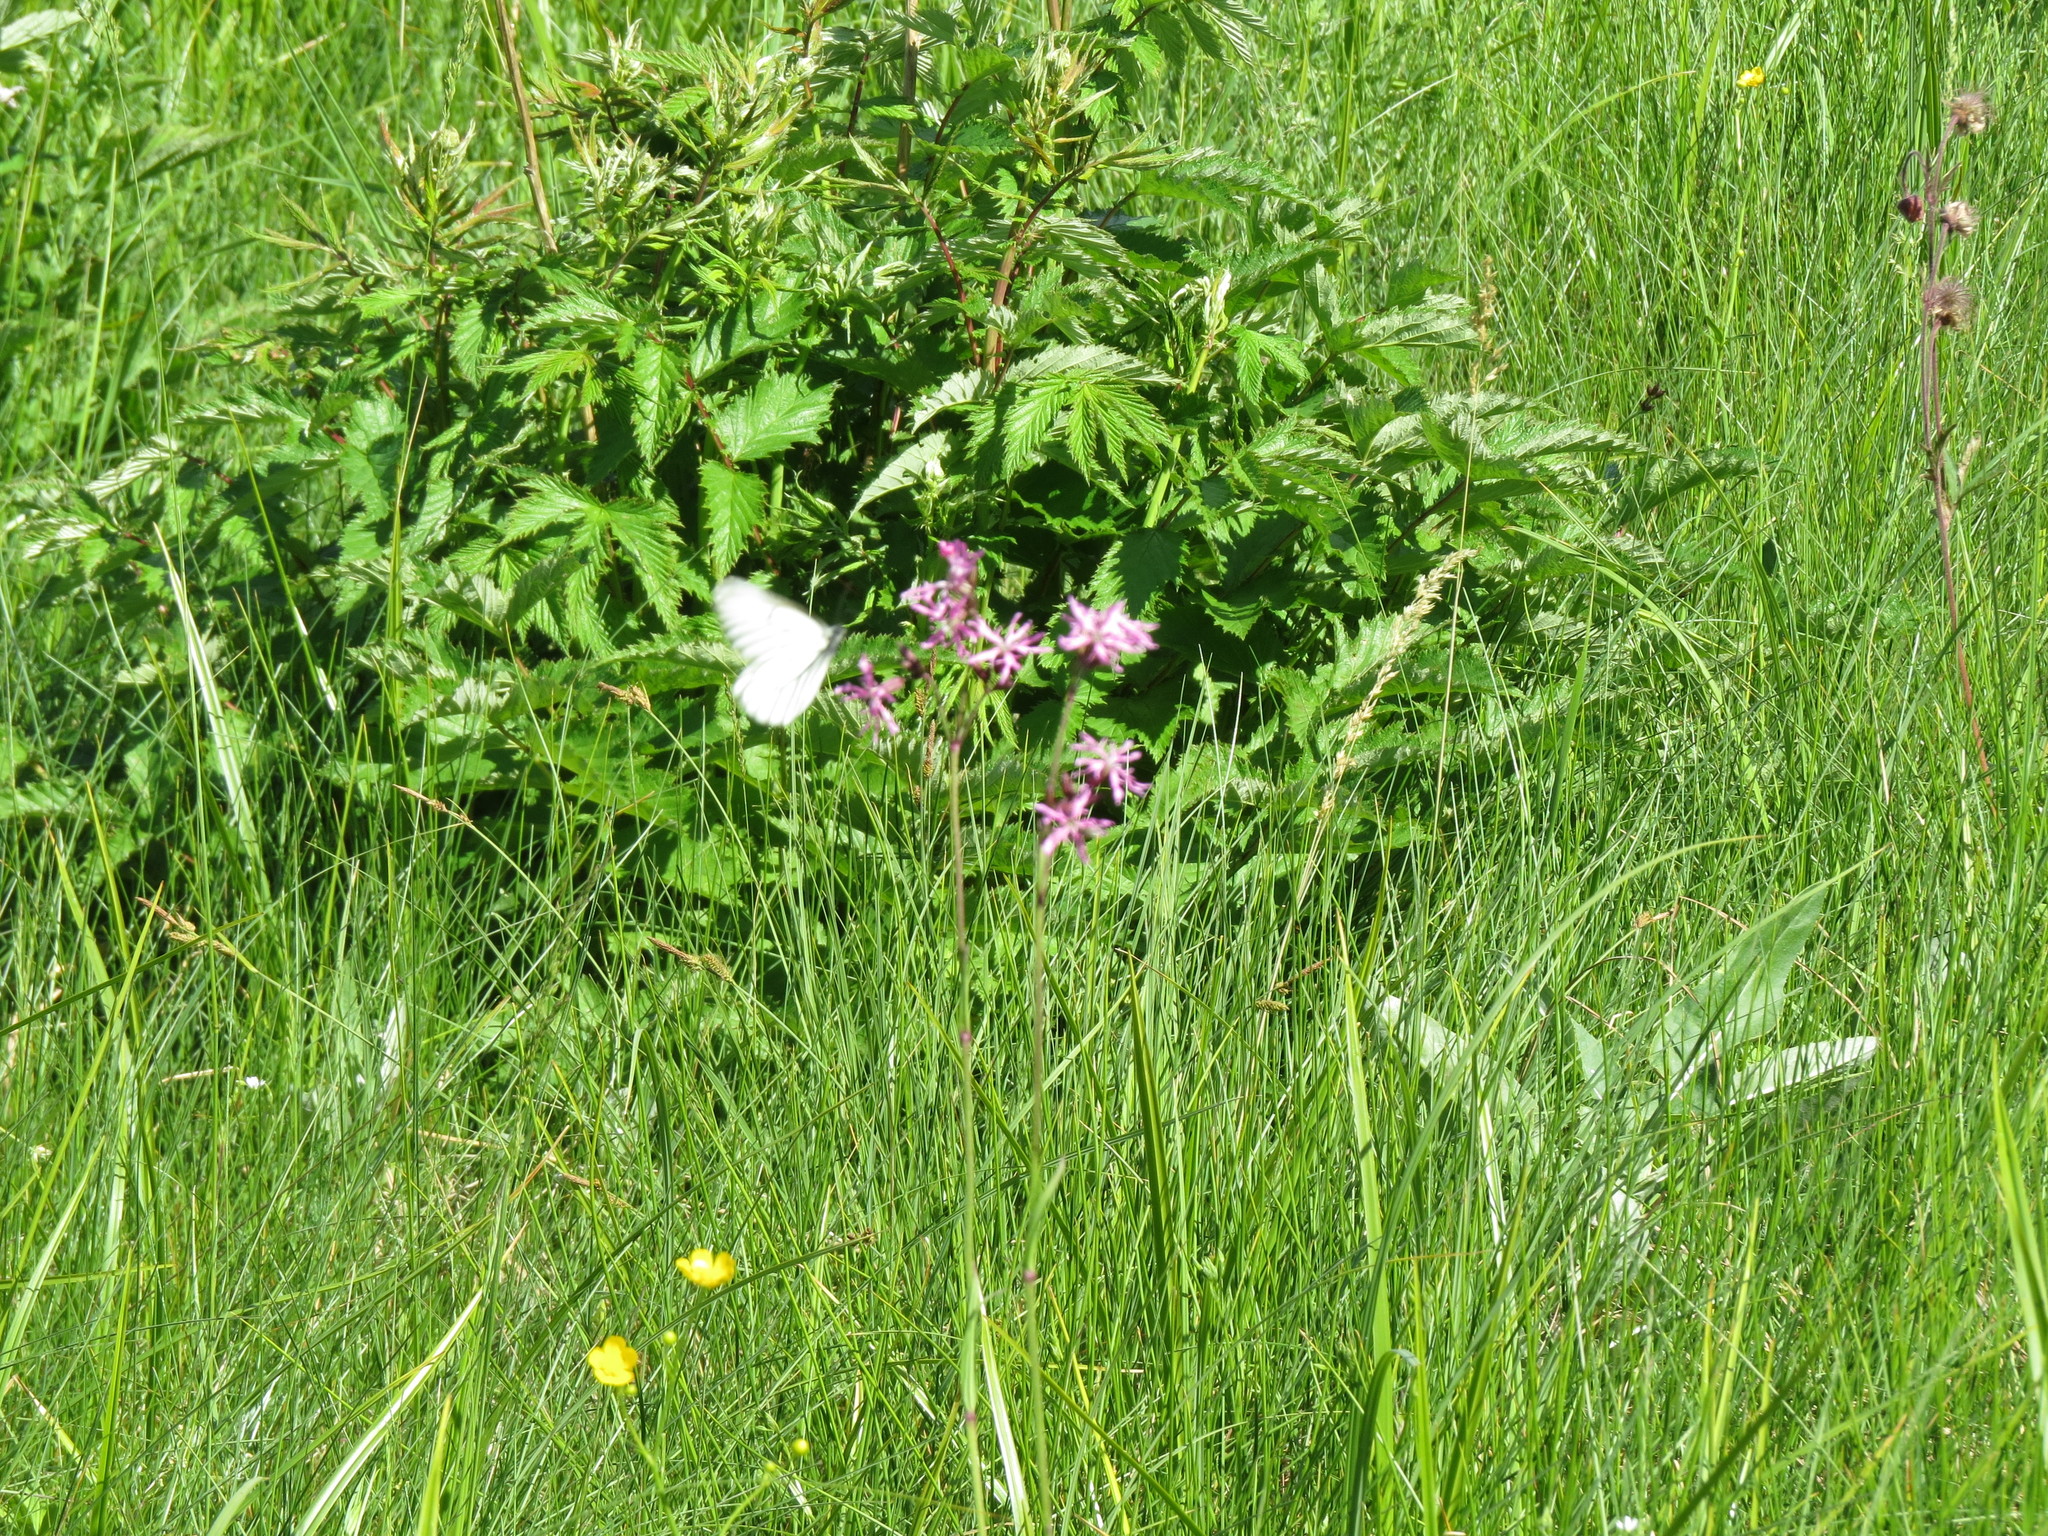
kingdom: Animalia
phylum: Arthropoda
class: Insecta
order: Lepidoptera
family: Pieridae
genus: Aporia
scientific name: Aporia crataegi
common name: Black-veined white
